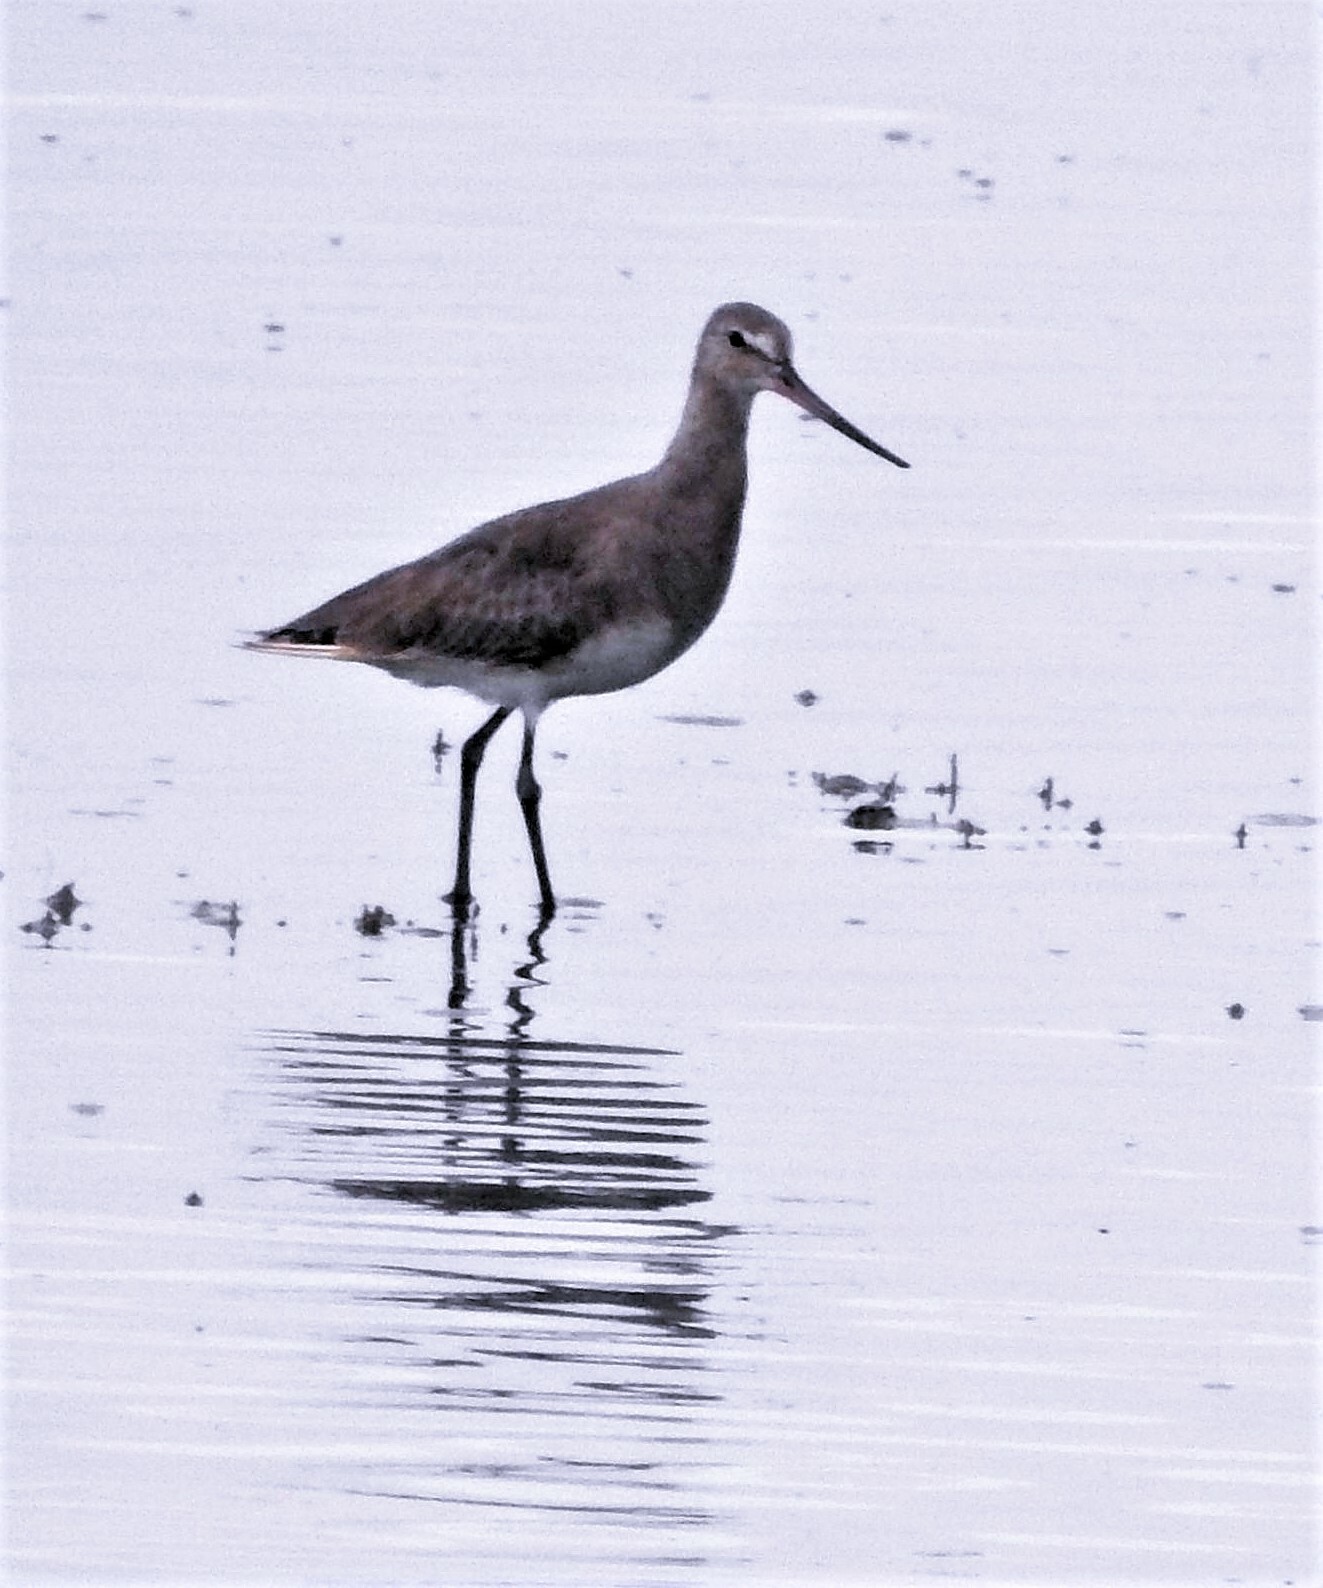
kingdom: Animalia
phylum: Chordata
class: Aves
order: Charadriiformes
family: Scolopacidae
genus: Limosa
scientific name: Limosa haemastica
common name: Hudsonian godwit
